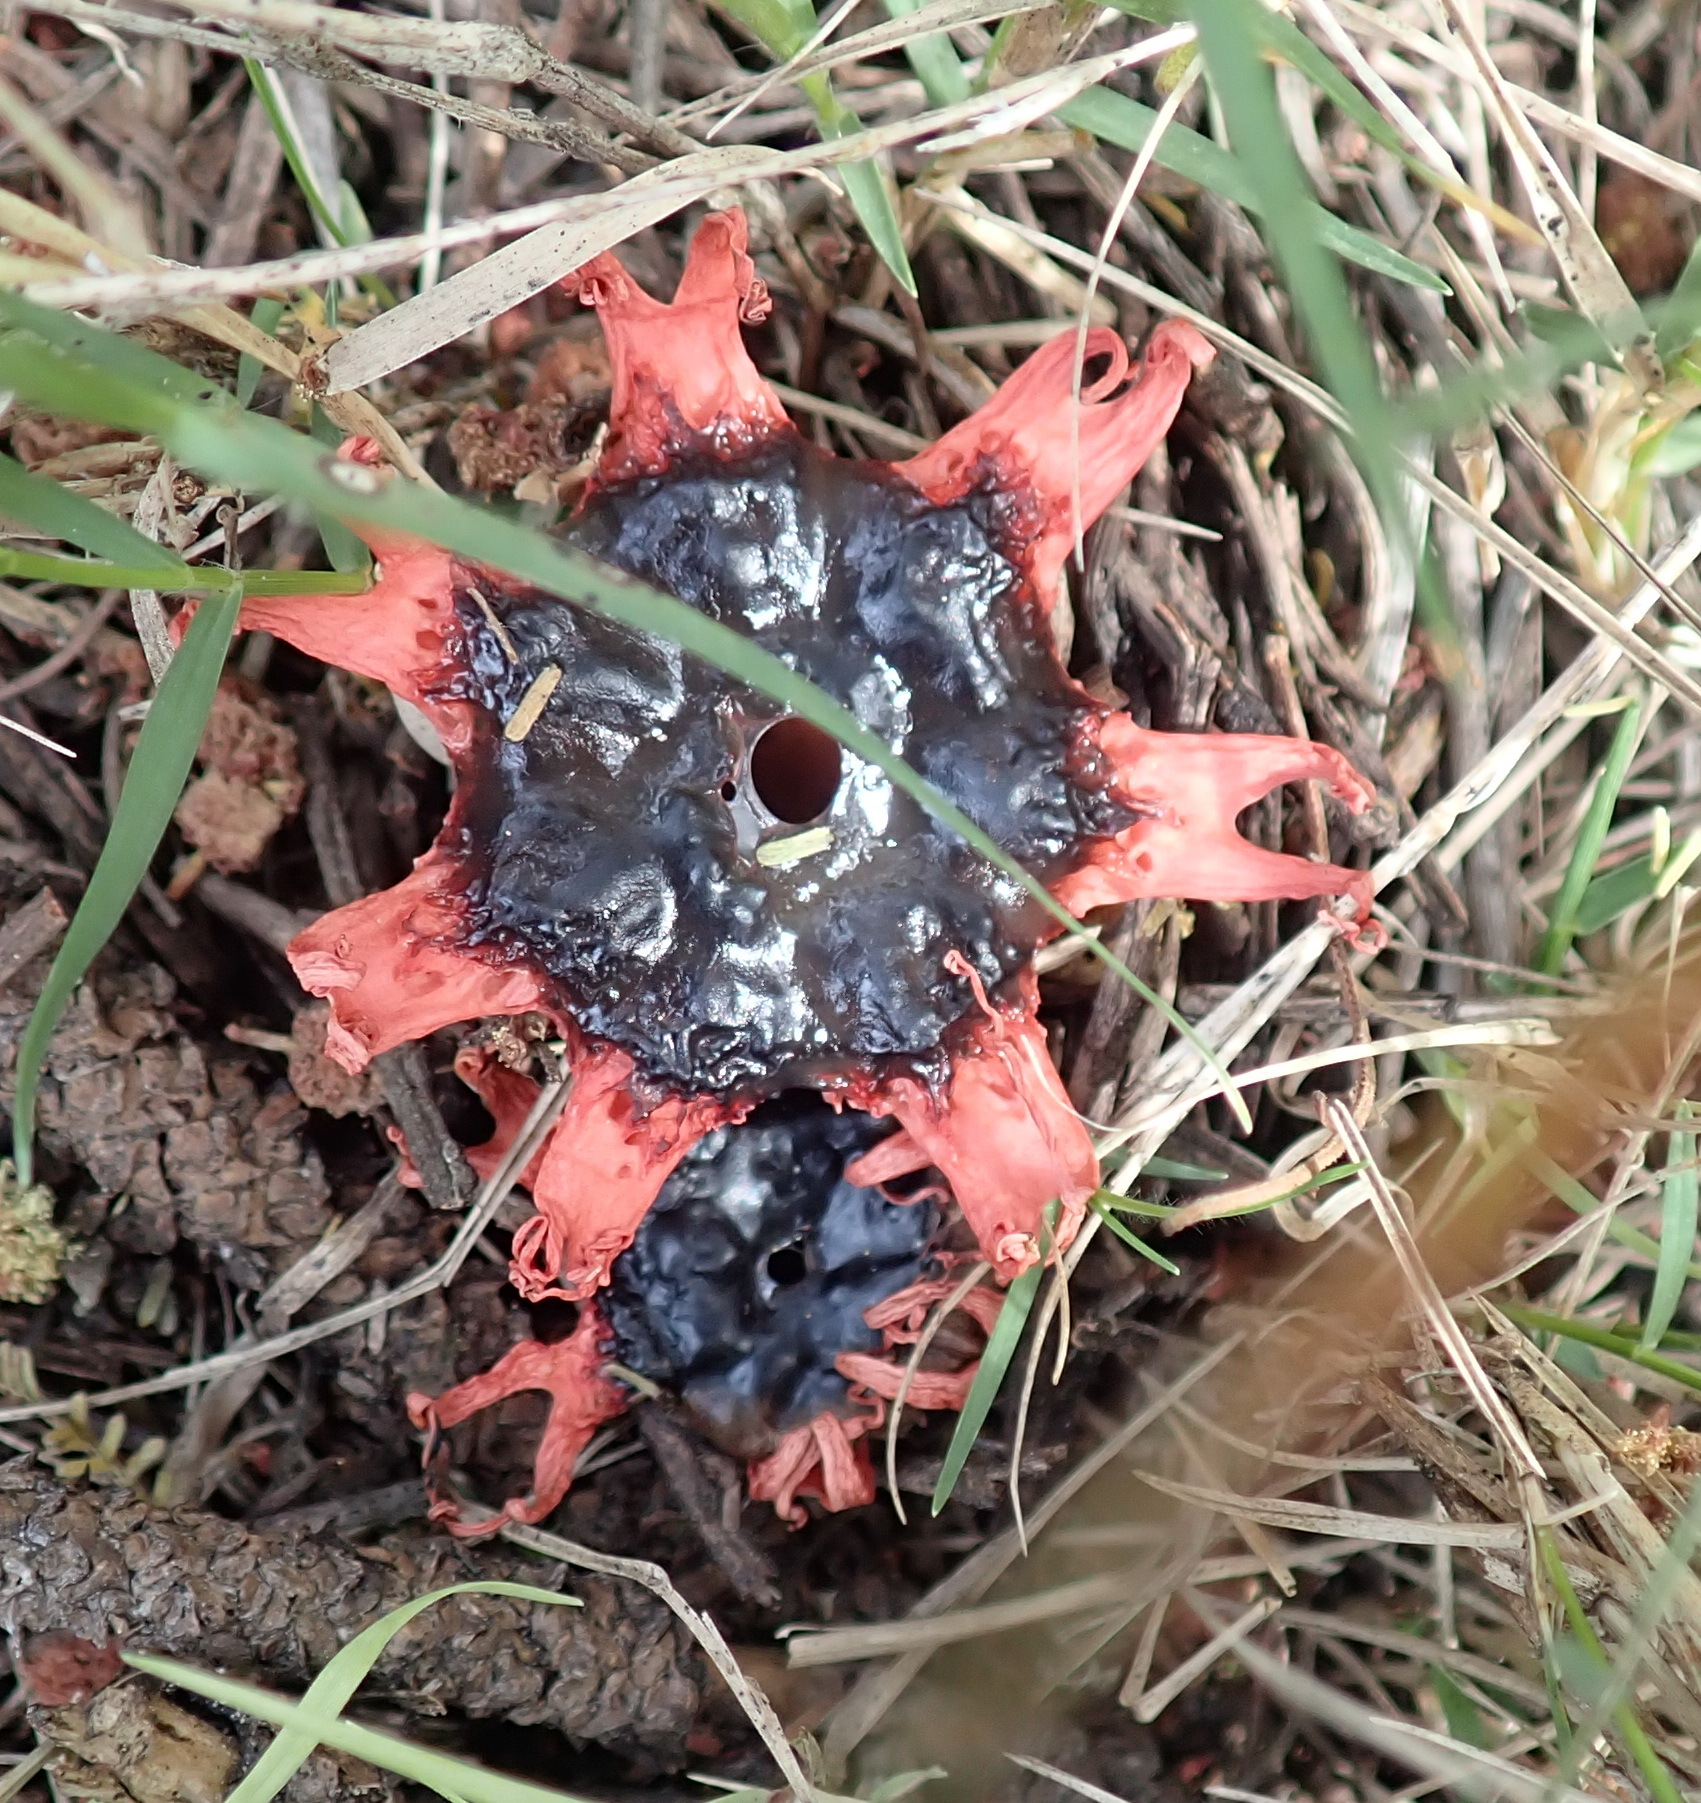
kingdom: Fungi
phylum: Basidiomycota
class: Agaricomycetes
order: Phallales
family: Phallaceae
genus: Aseroe
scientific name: Aseroe rubra
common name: Starfish fungus
